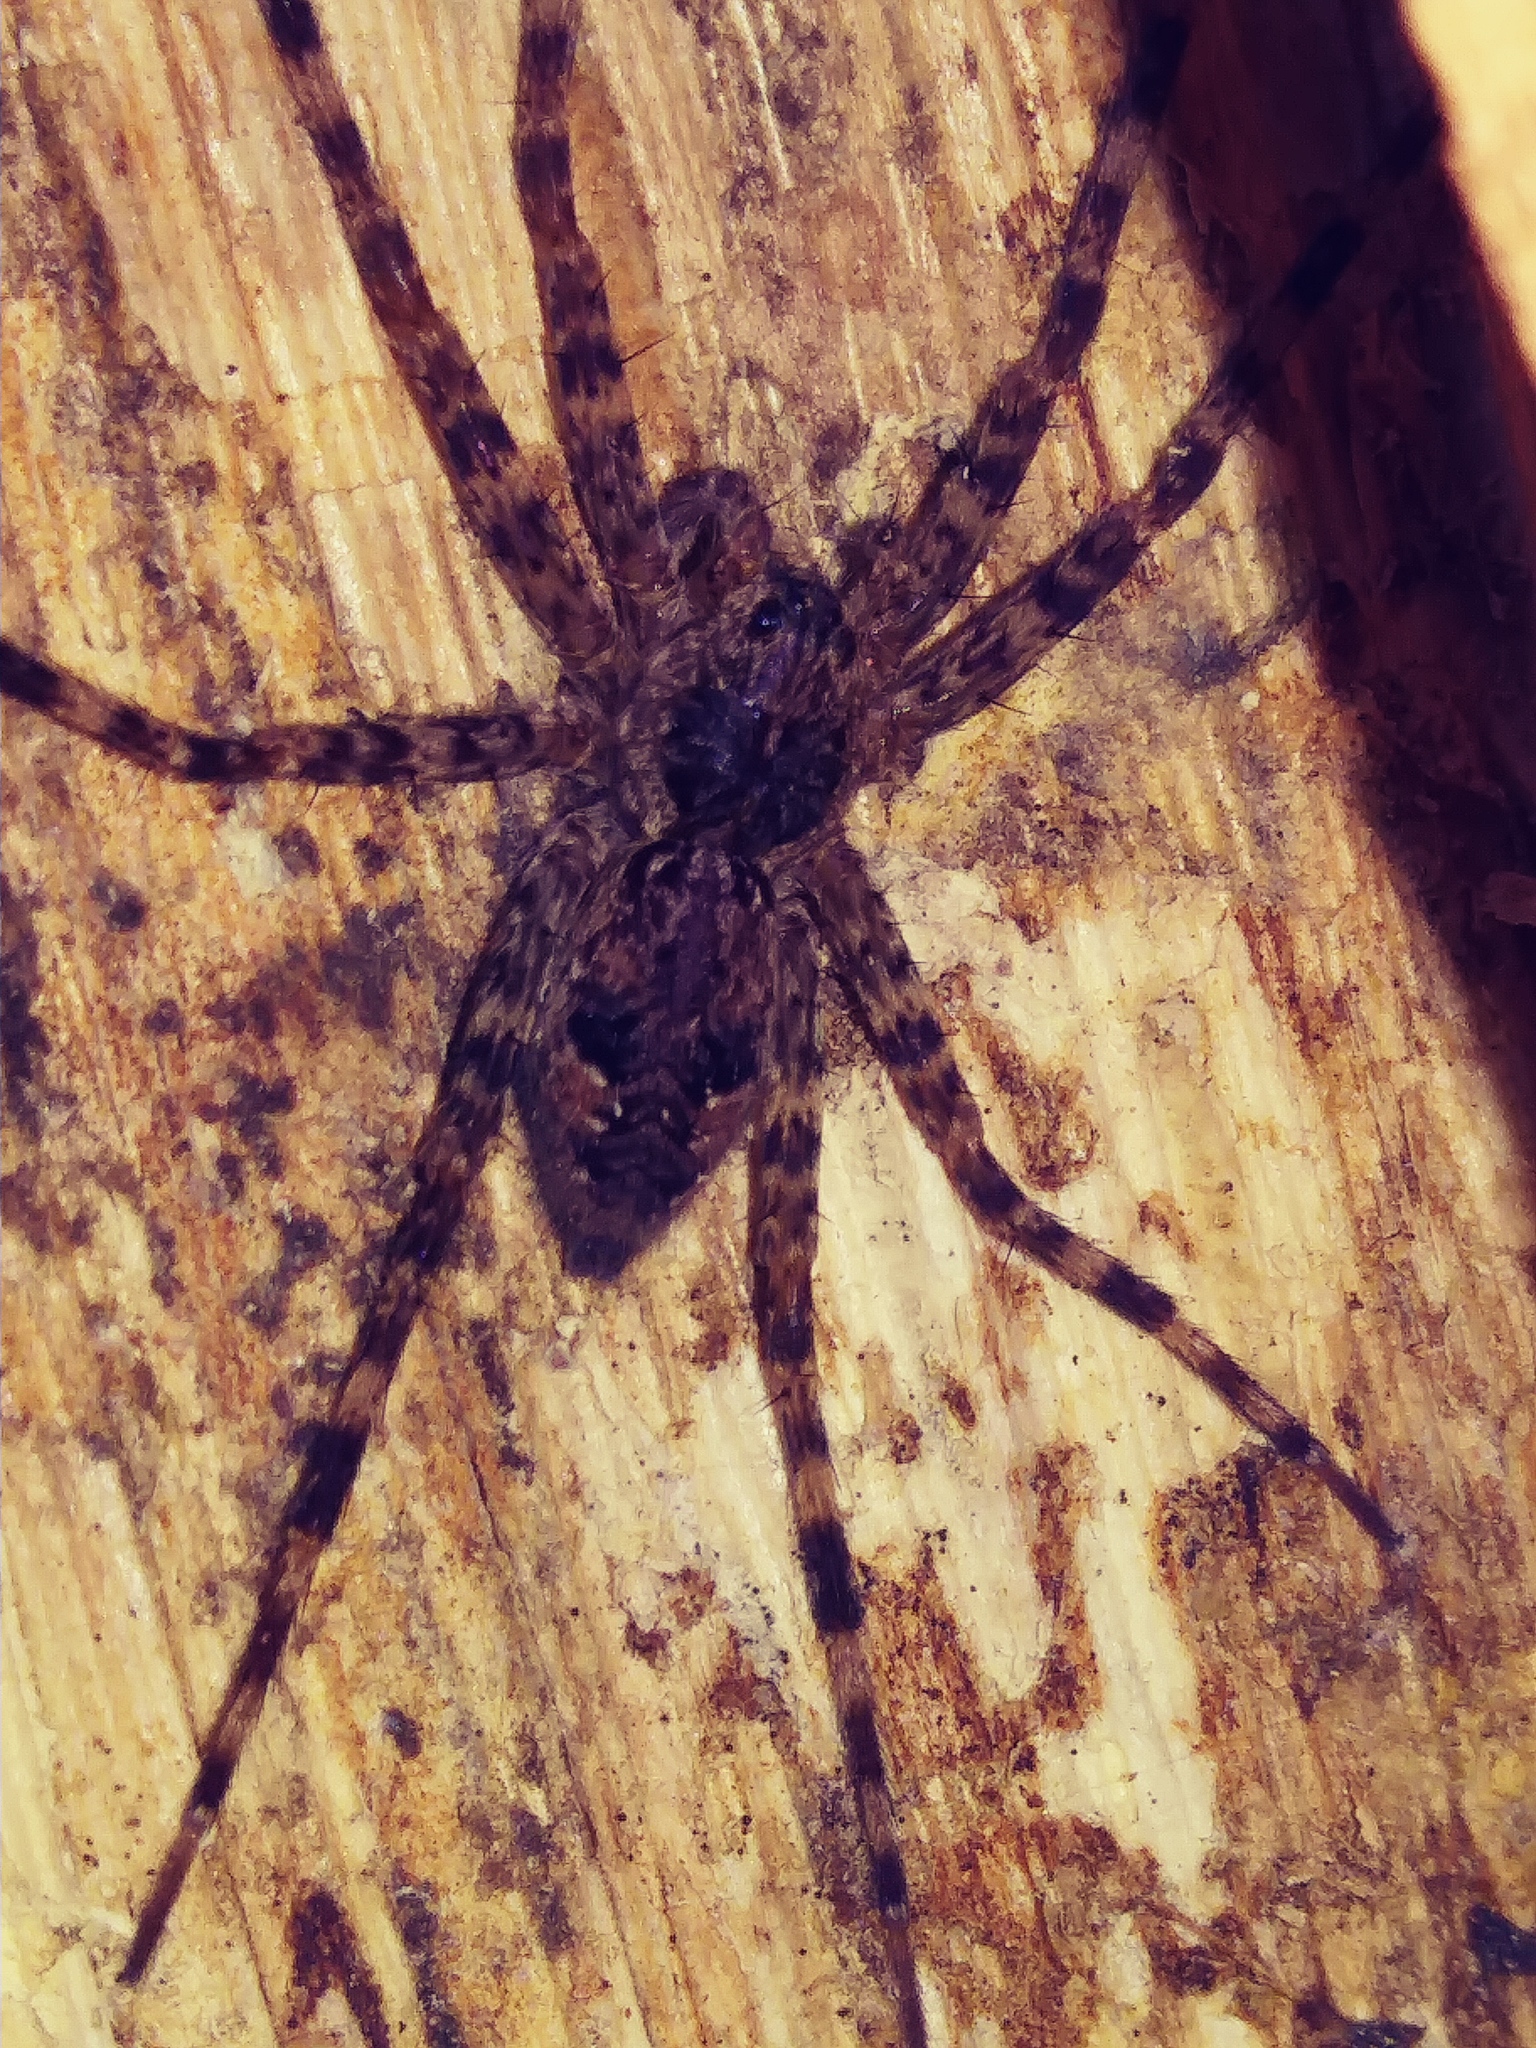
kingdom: Animalia
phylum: Arthropoda
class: Arachnida
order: Araneae
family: Pisauridae
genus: Dolomedes
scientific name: Dolomedes tenebrosus
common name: Dark fishing spider
